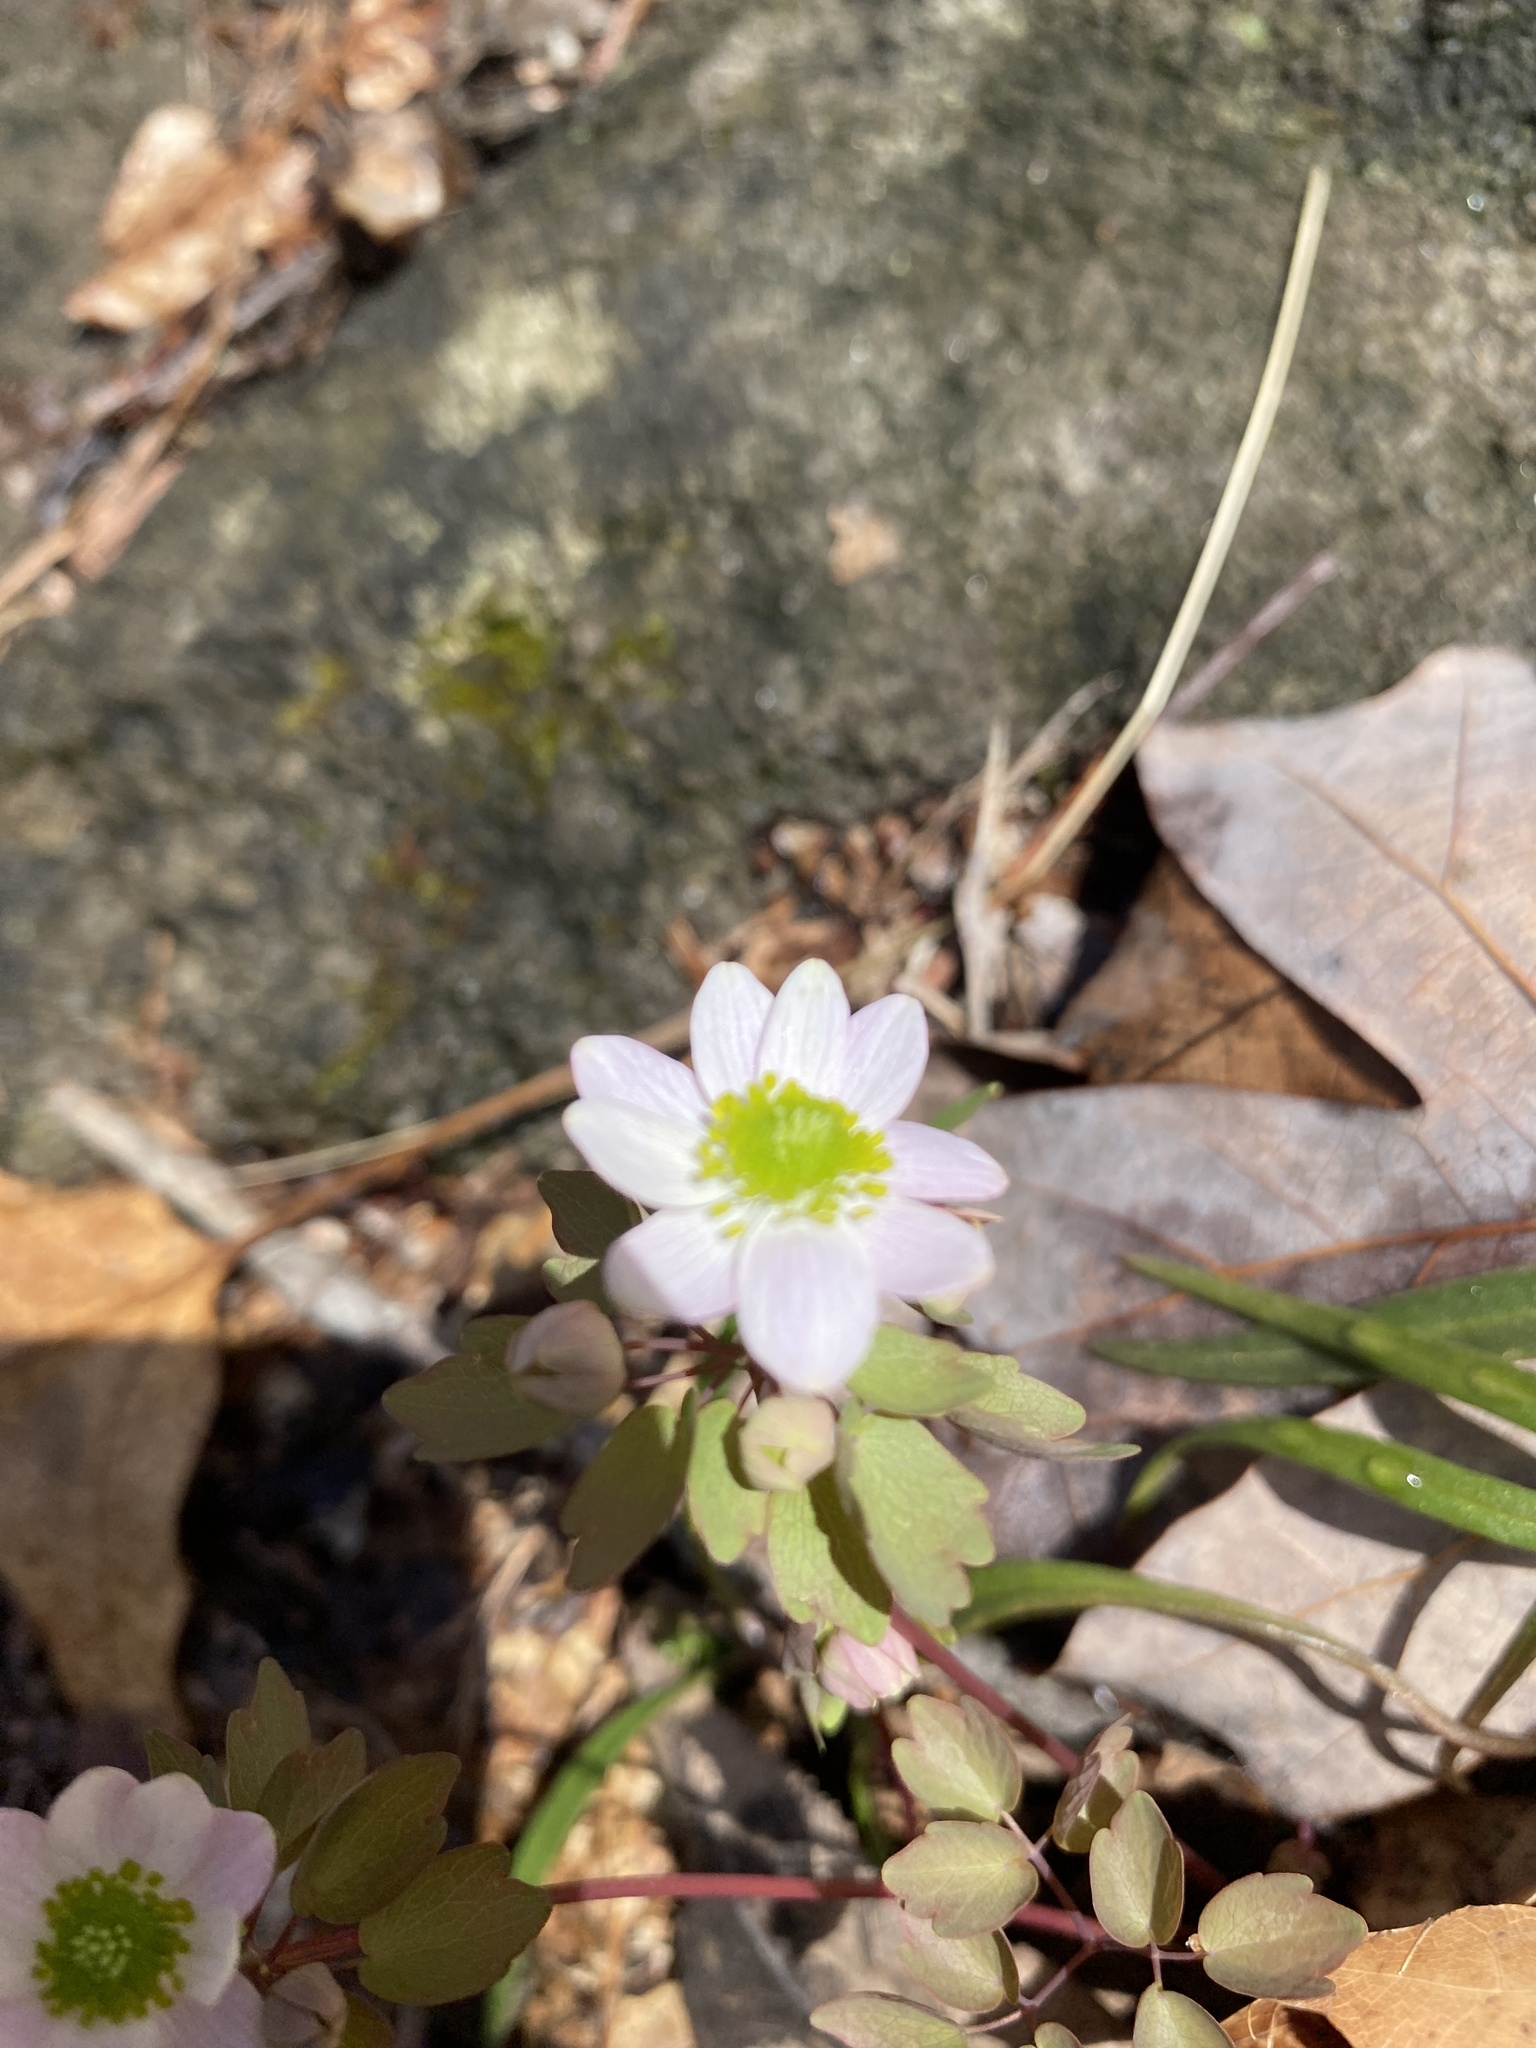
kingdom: Plantae
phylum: Tracheophyta
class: Magnoliopsida
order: Ranunculales
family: Ranunculaceae
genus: Thalictrum
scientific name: Thalictrum thalictroides
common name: Rue-anemone
